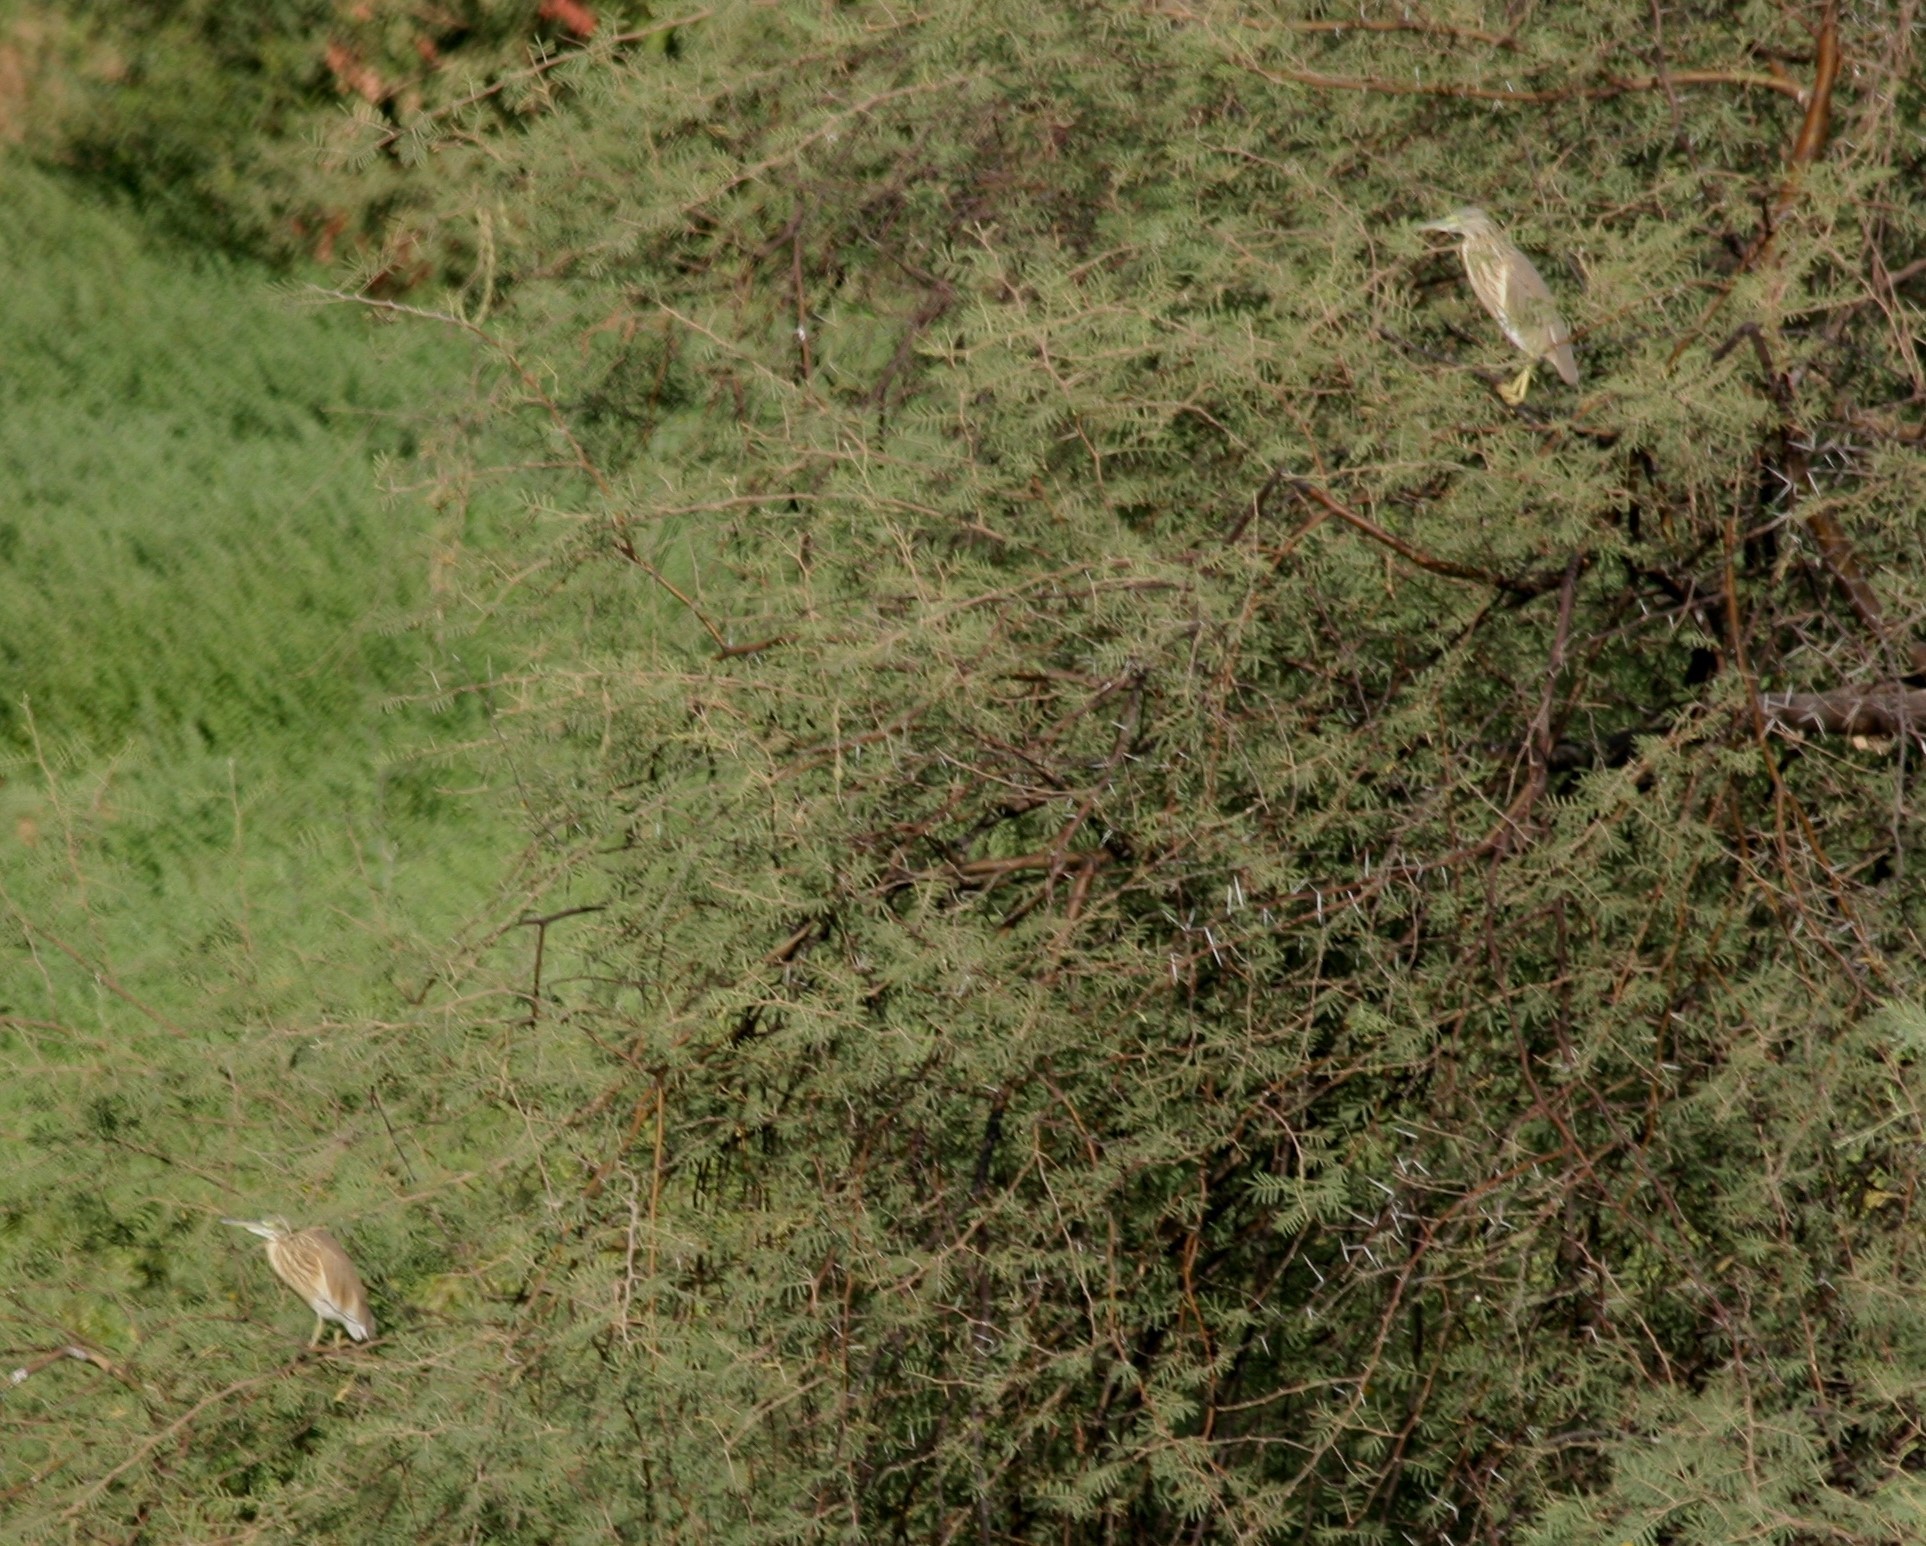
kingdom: Animalia
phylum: Chordata
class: Aves
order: Pelecaniformes
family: Ardeidae
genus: Ardeola
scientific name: Ardeola ralloides
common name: Squacco heron
